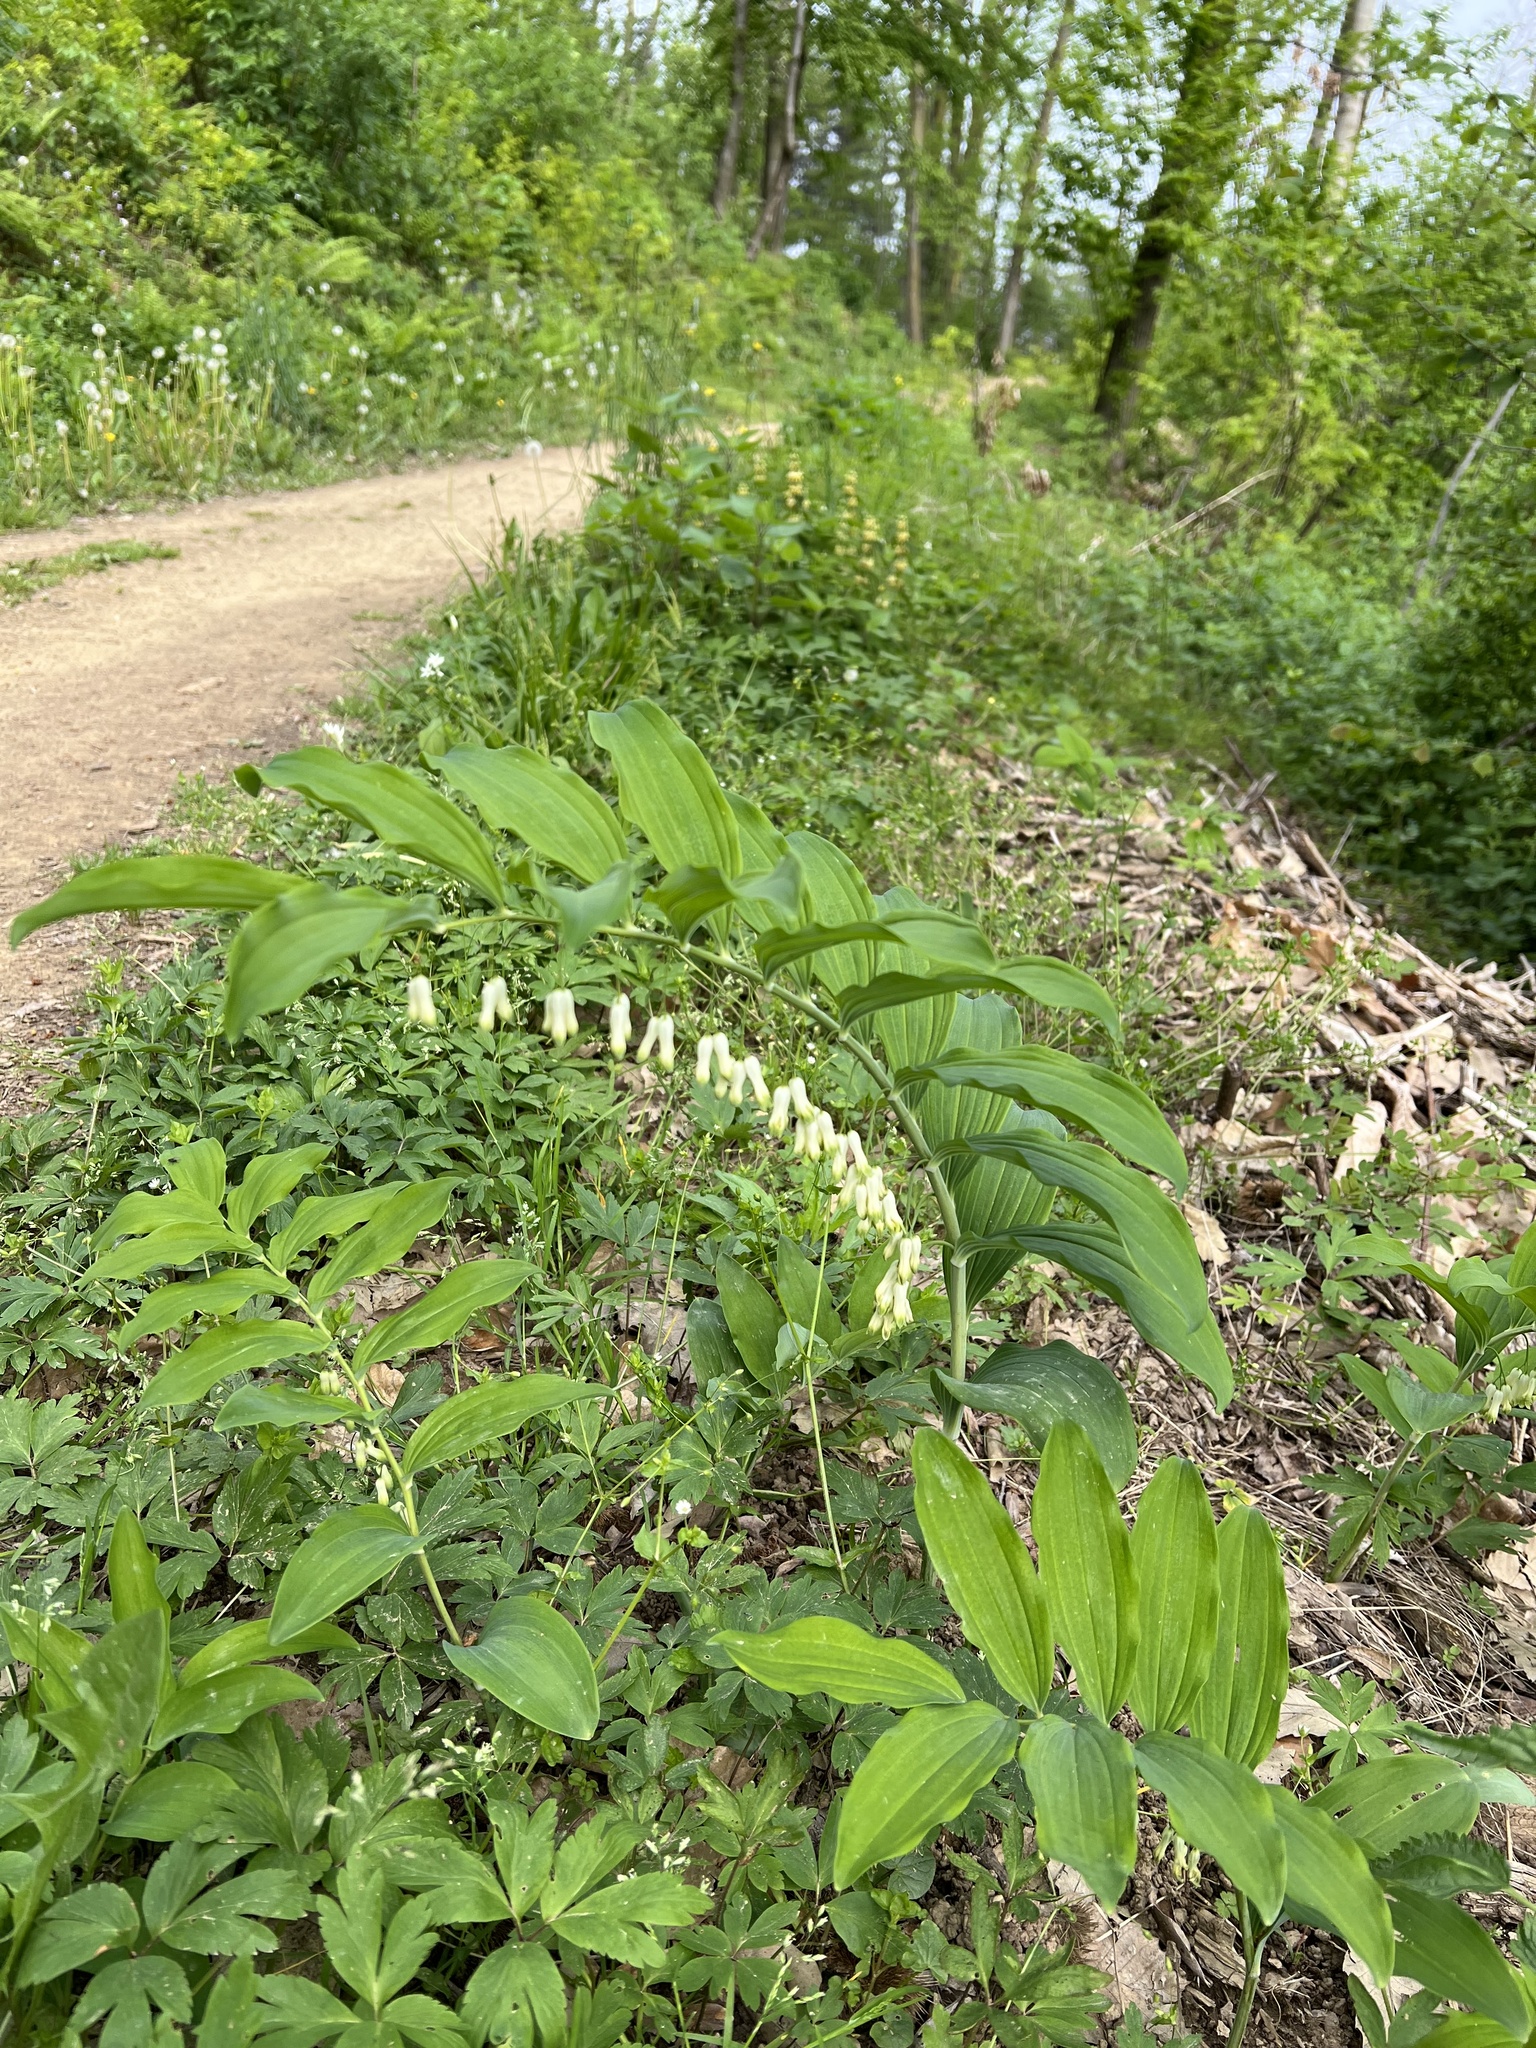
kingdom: Plantae
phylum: Tracheophyta
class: Liliopsida
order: Asparagales
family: Asparagaceae
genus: Polygonatum
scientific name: Polygonatum multiflorum
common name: Solomon's-seal
